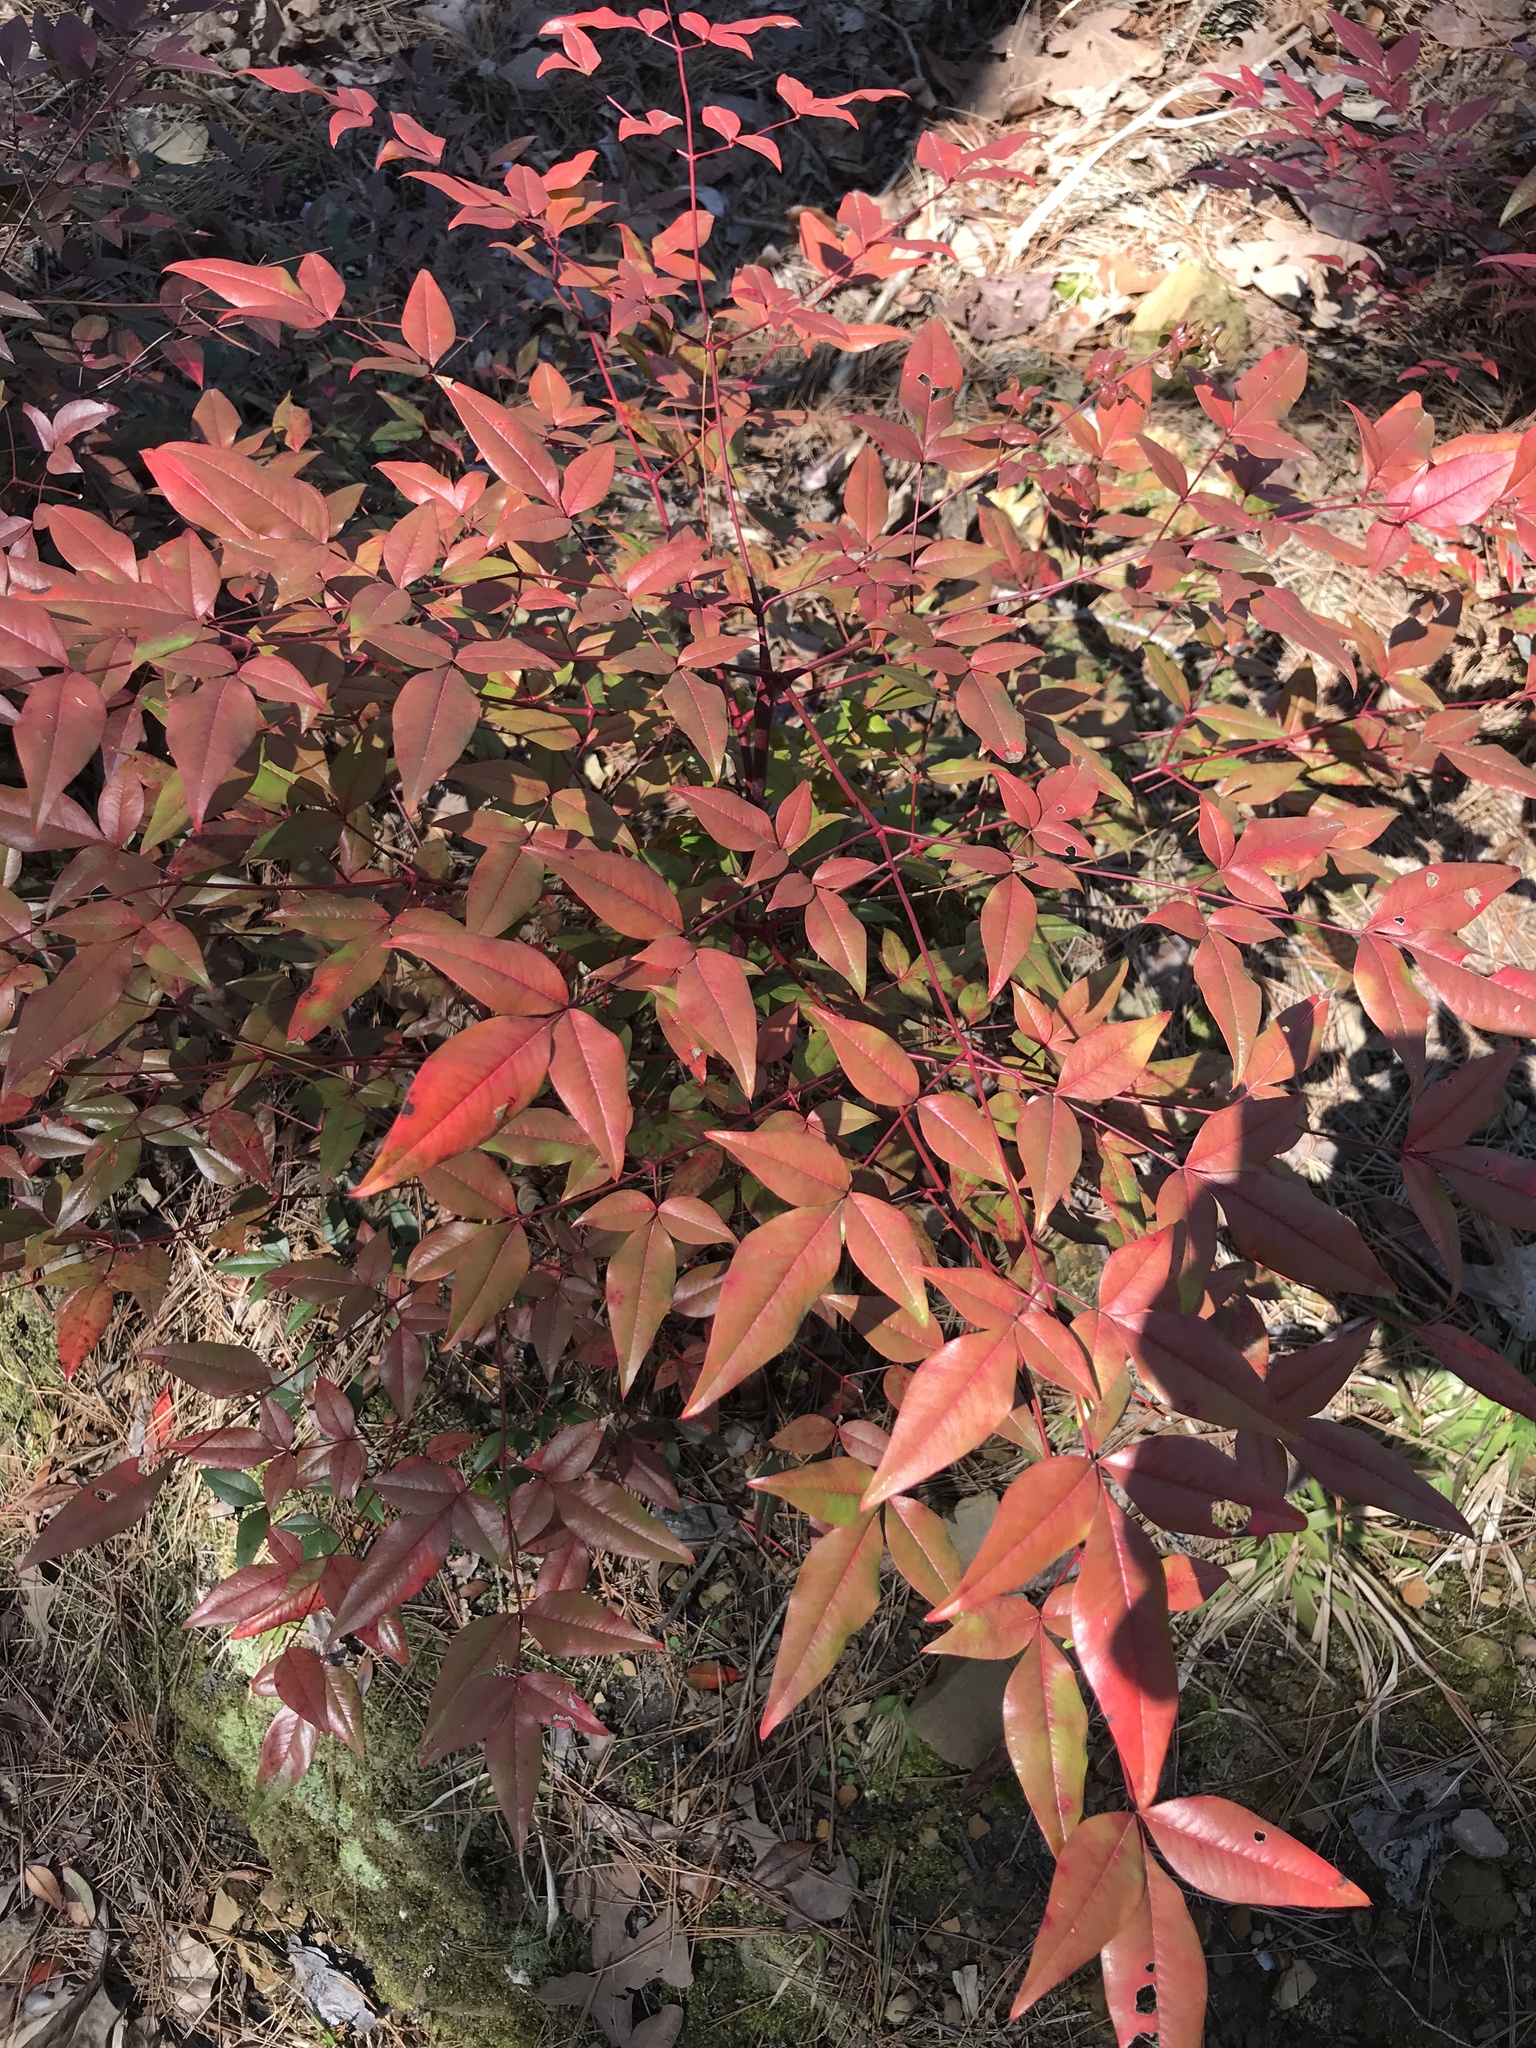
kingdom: Plantae
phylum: Tracheophyta
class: Magnoliopsida
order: Ranunculales
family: Berberidaceae
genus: Nandina
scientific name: Nandina domestica
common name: Sacred bamboo
